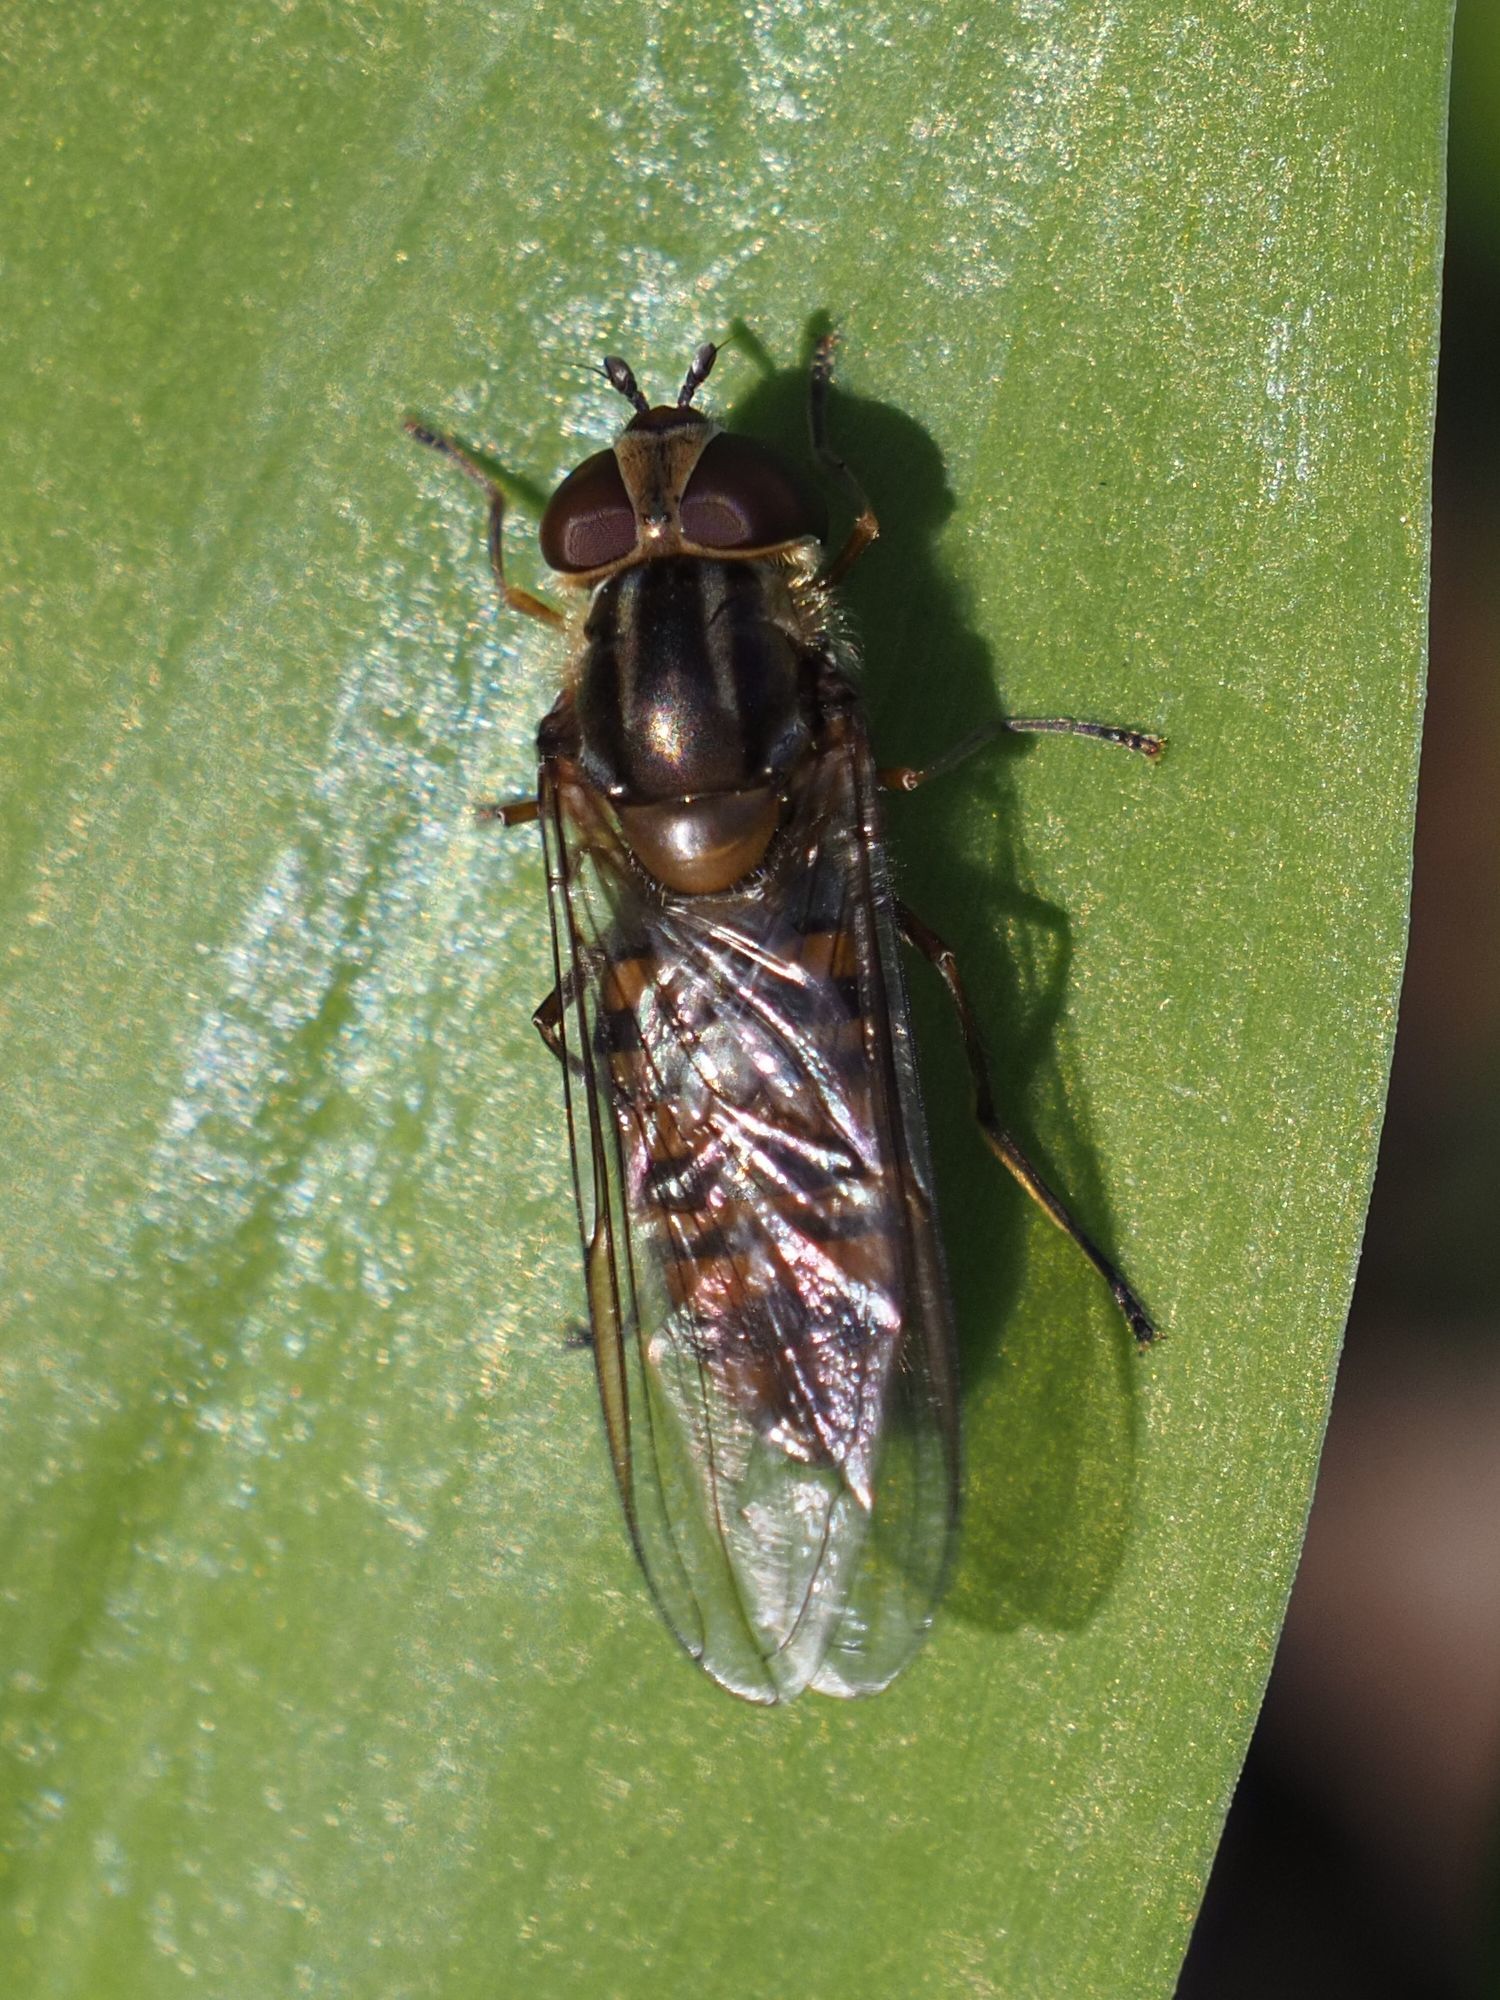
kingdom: Animalia
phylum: Arthropoda
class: Insecta
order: Diptera
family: Syrphidae
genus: Episyrphus
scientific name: Episyrphus balteatus
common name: Marmalade hoverfly
